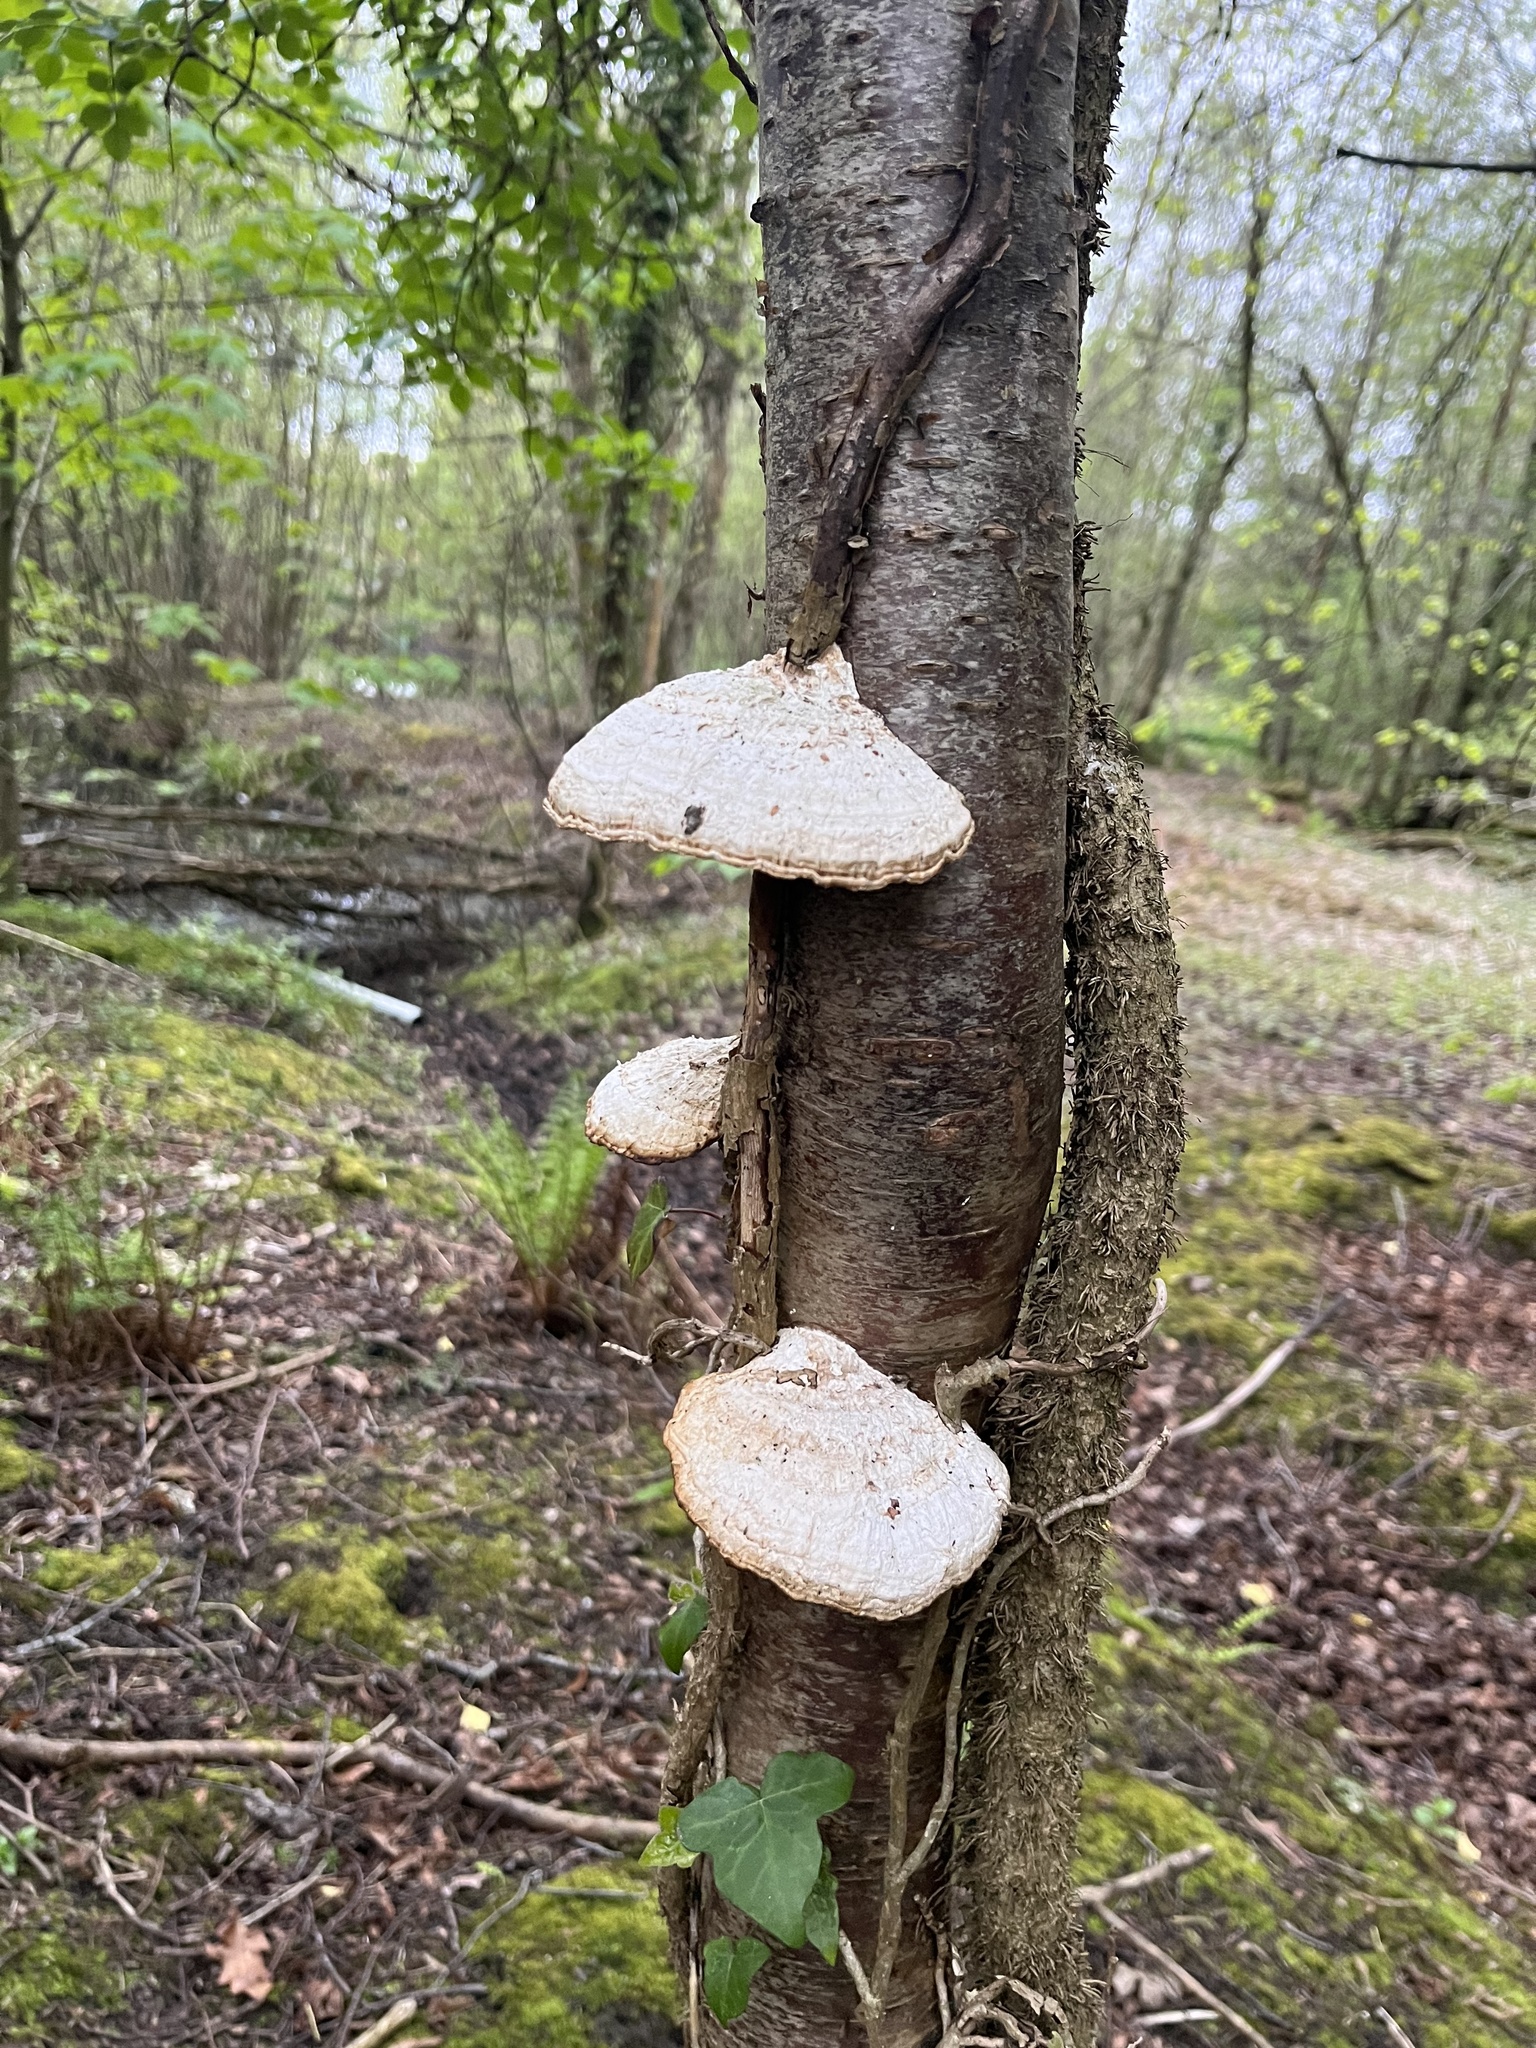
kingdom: Fungi
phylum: Basidiomycota
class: Agaricomycetes
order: Polyporales
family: Polyporaceae
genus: Daedaleopsis
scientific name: Daedaleopsis confragosa
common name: Blushing bracket
